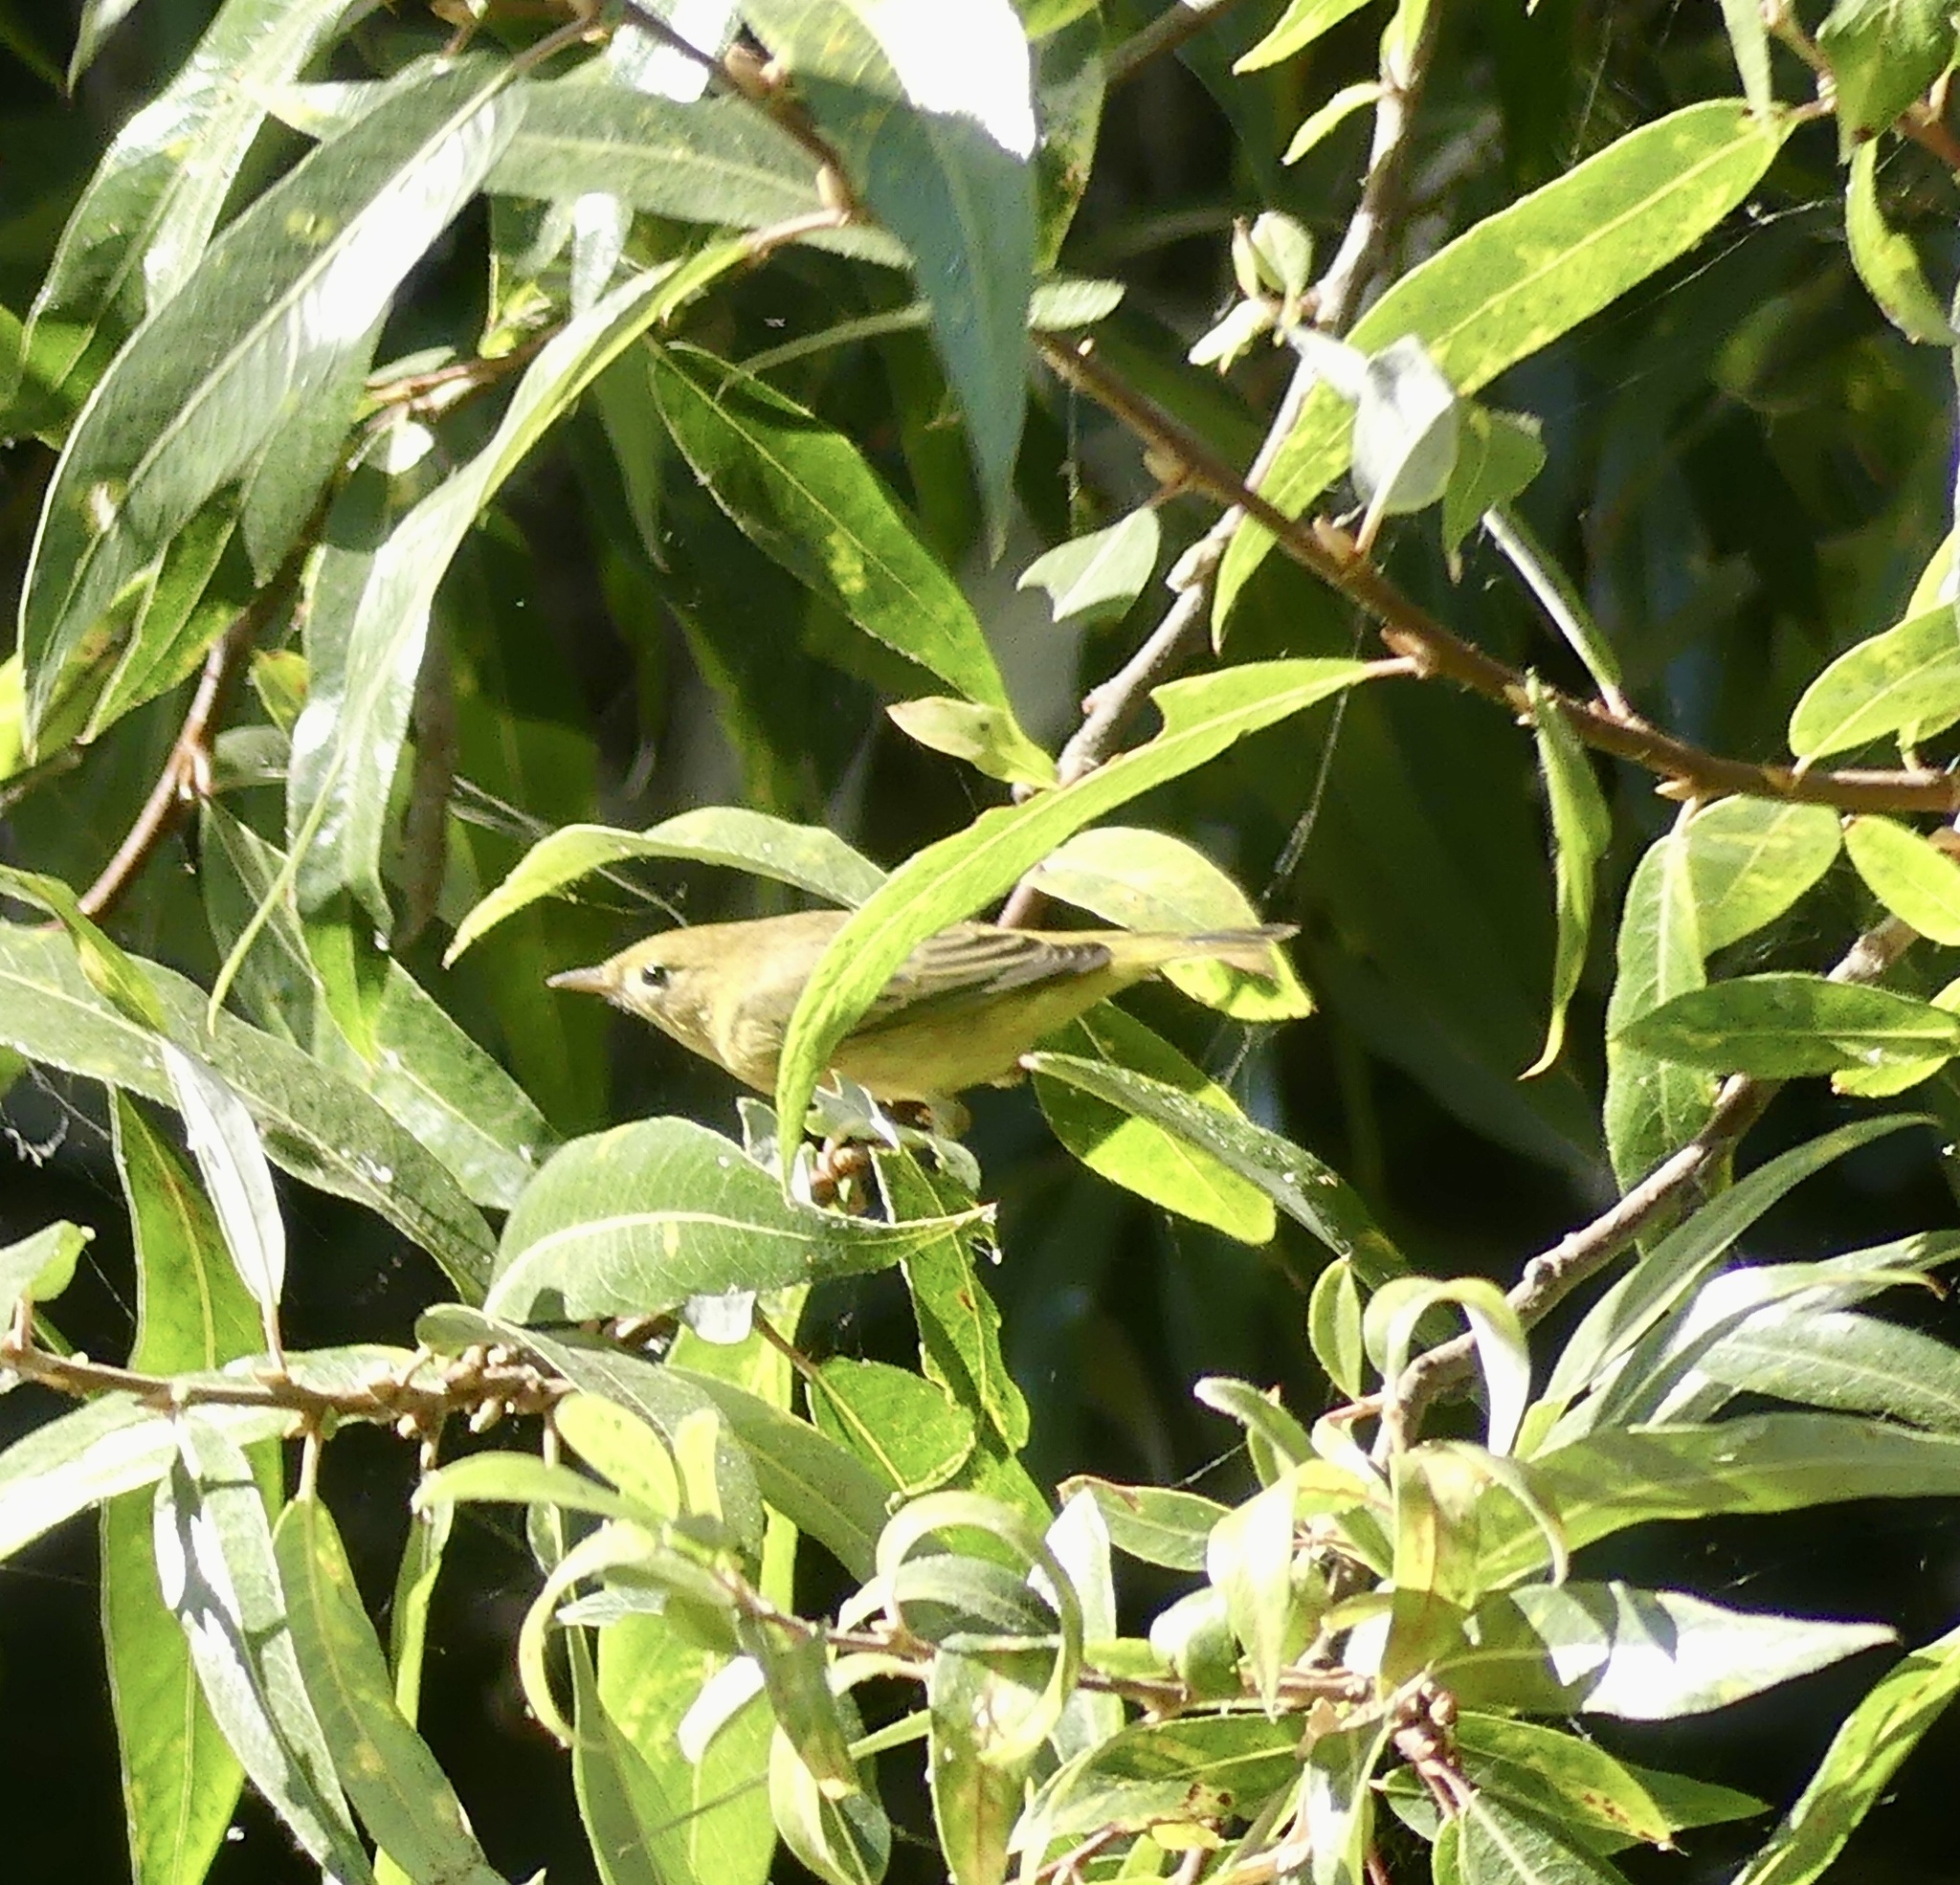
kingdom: Animalia
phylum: Chordata
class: Aves
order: Passeriformes
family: Parulidae
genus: Setophaga
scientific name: Setophaga petechia
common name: Yellow warbler
